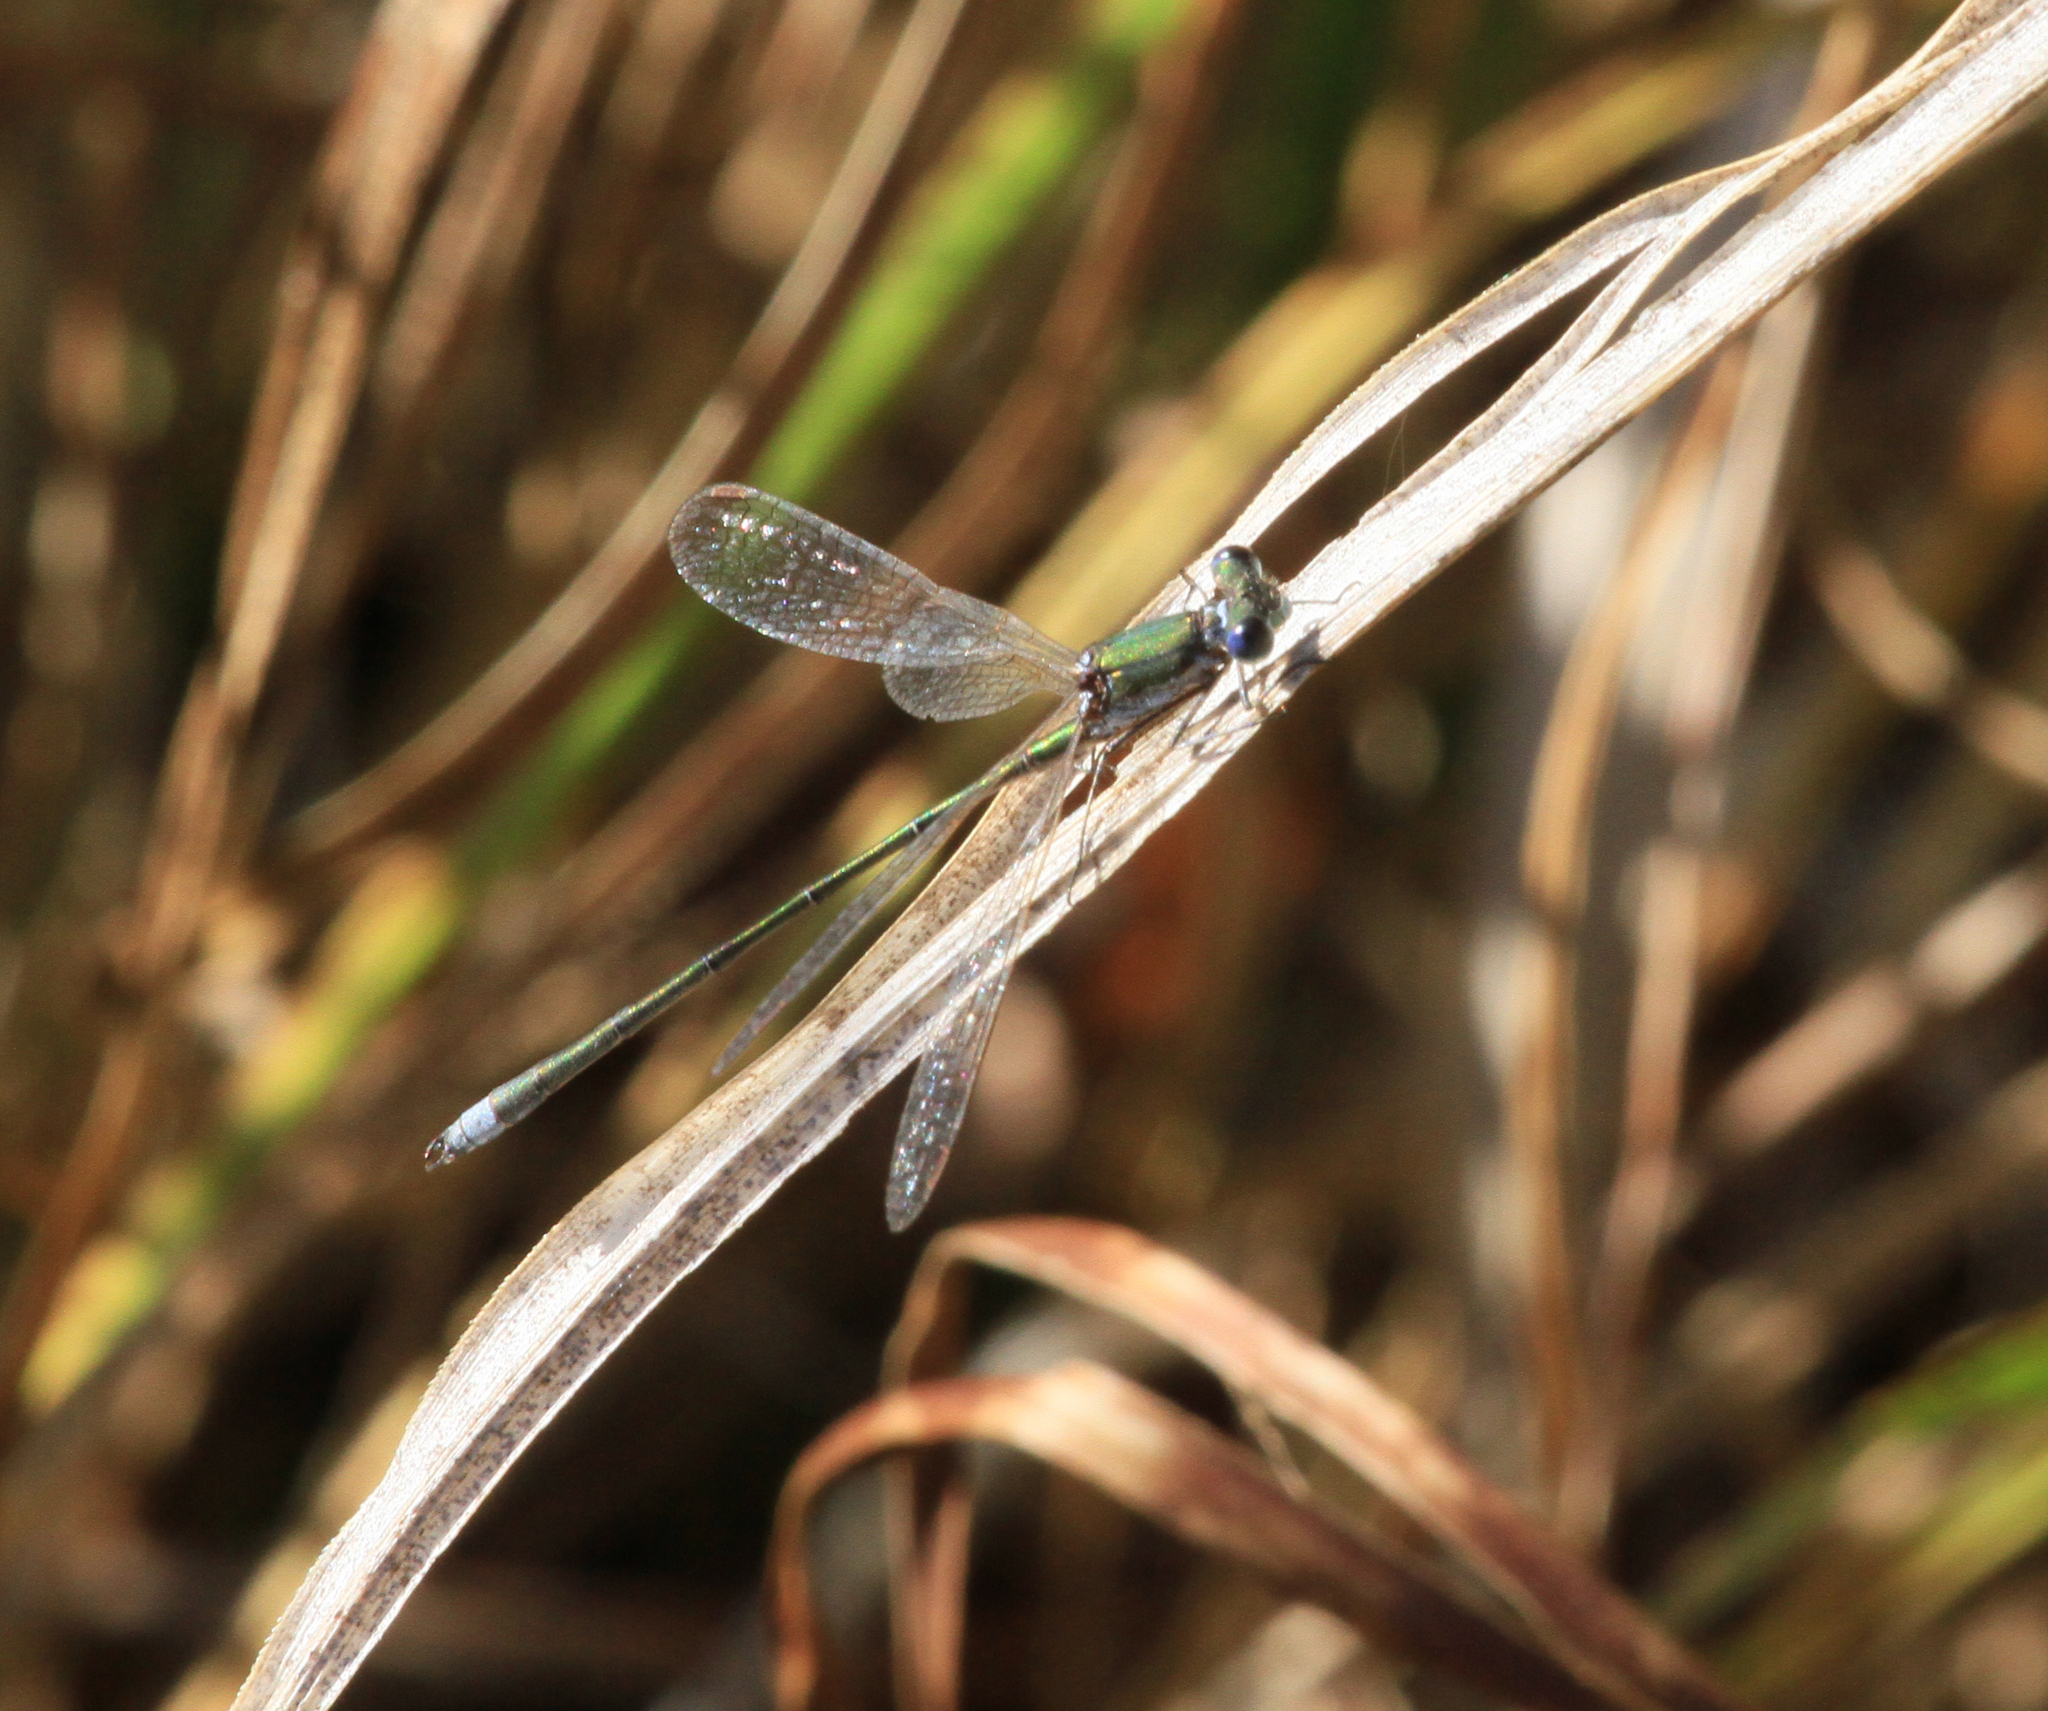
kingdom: Animalia
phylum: Arthropoda
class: Insecta
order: Odonata
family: Lestidae
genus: Lestes
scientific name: Lestes virens
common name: Small emerald spreadwing
